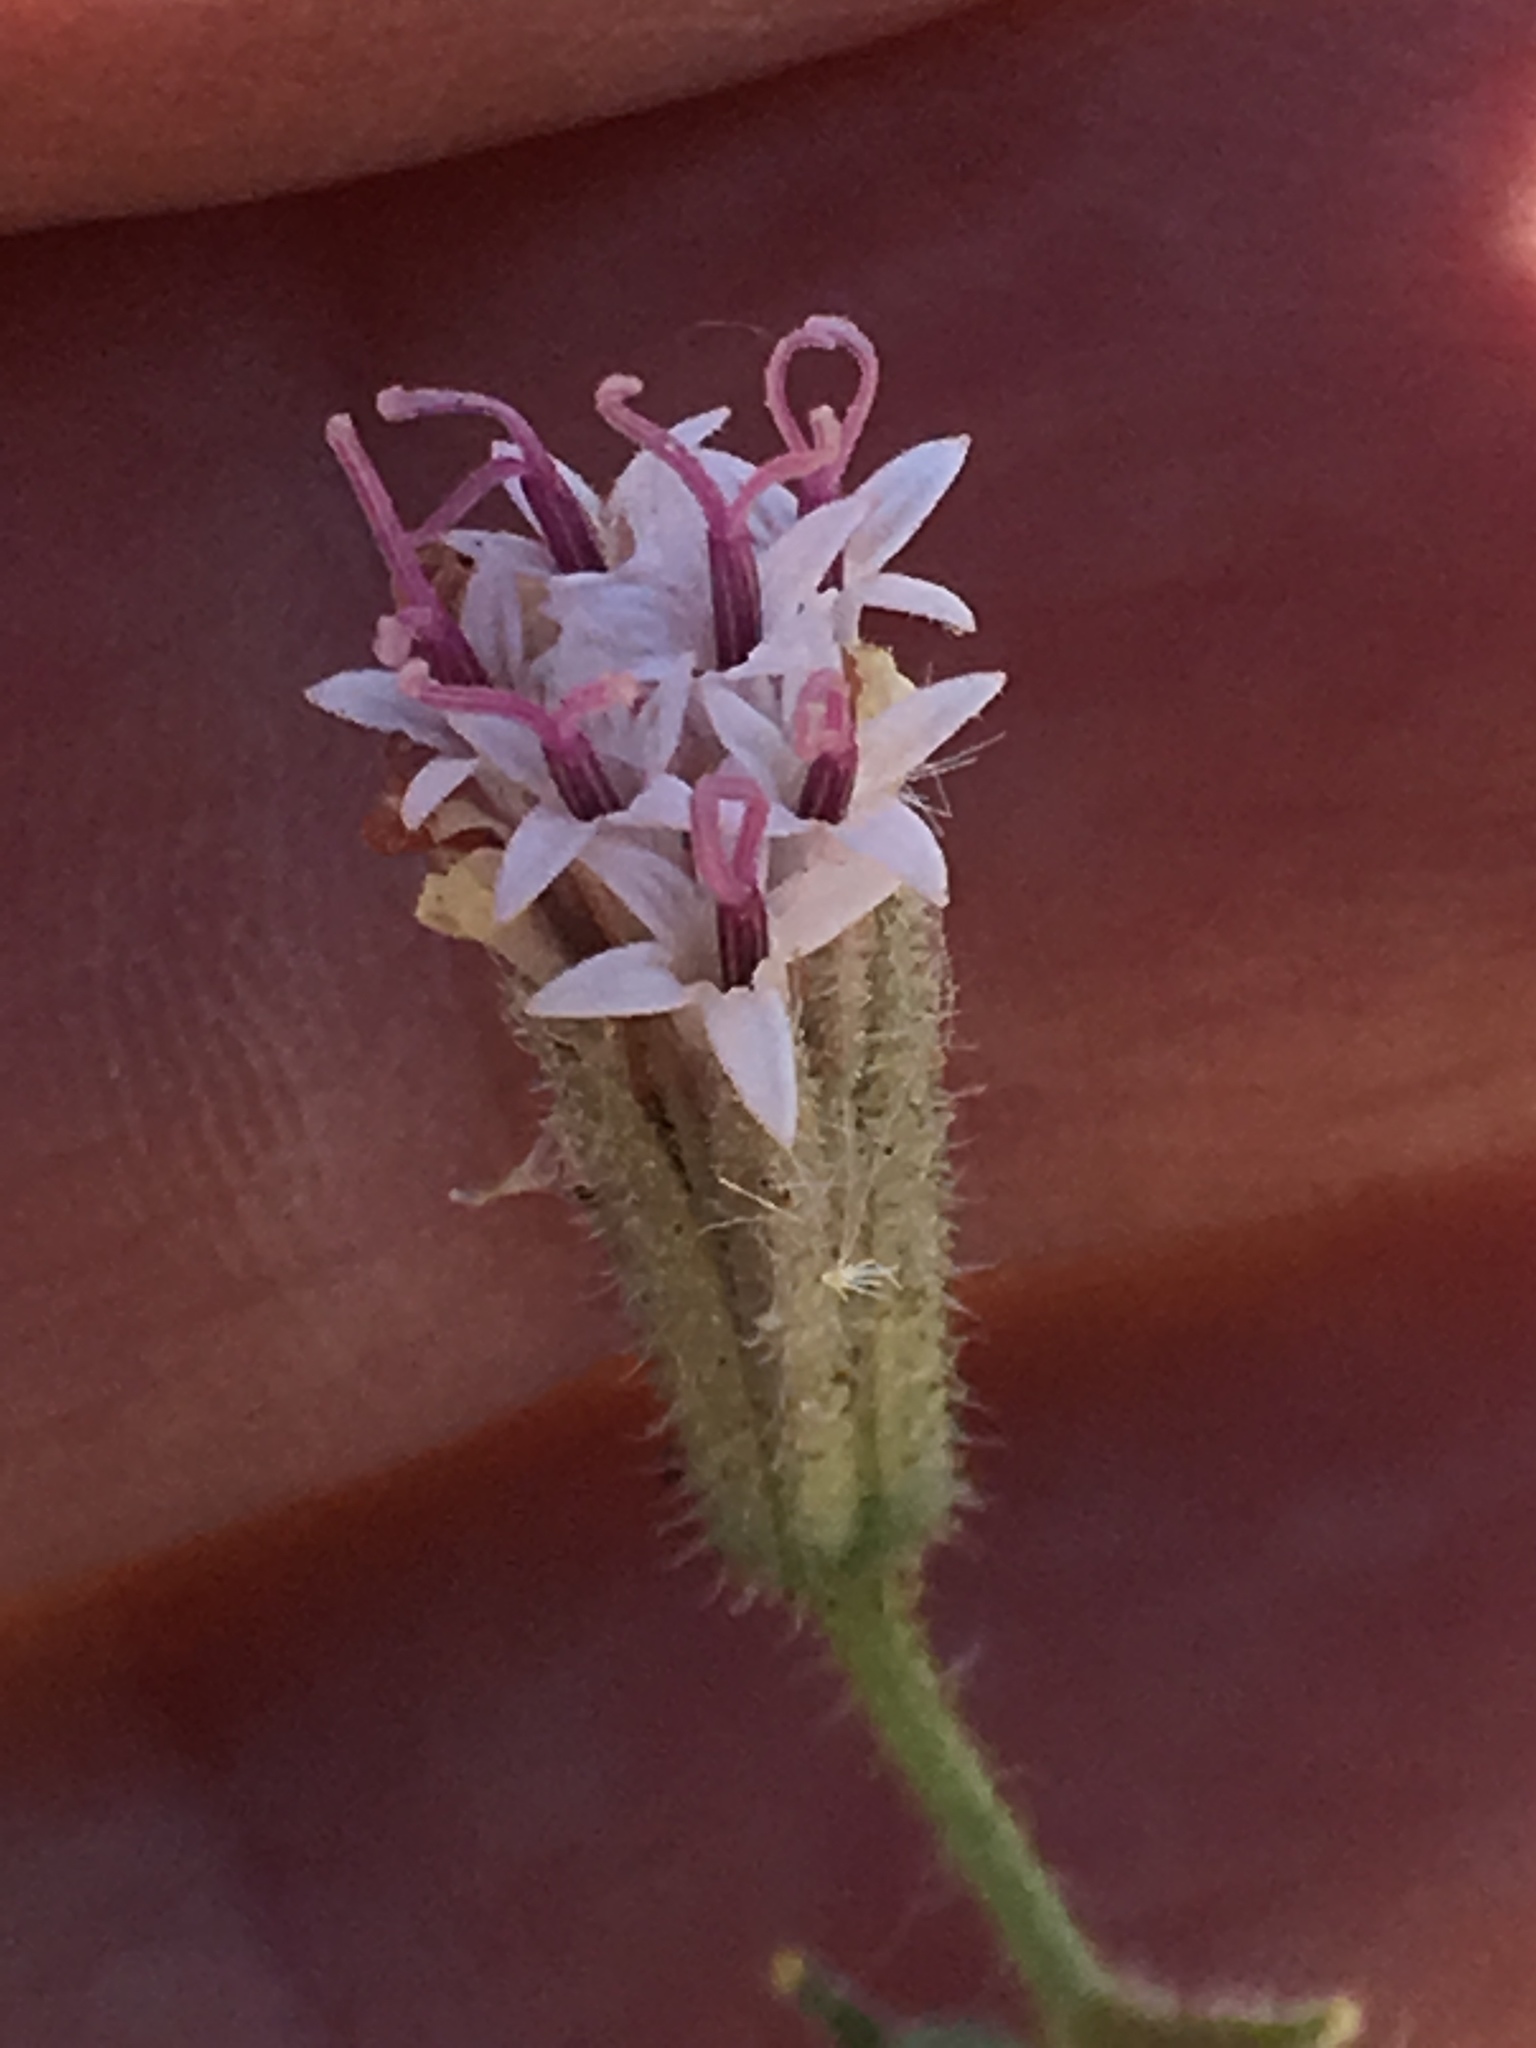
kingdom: Plantae
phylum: Tracheophyta
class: Magnoliopsida
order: Asterales
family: Asteraceae
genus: Palafoxia
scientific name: Palafoxia arida
